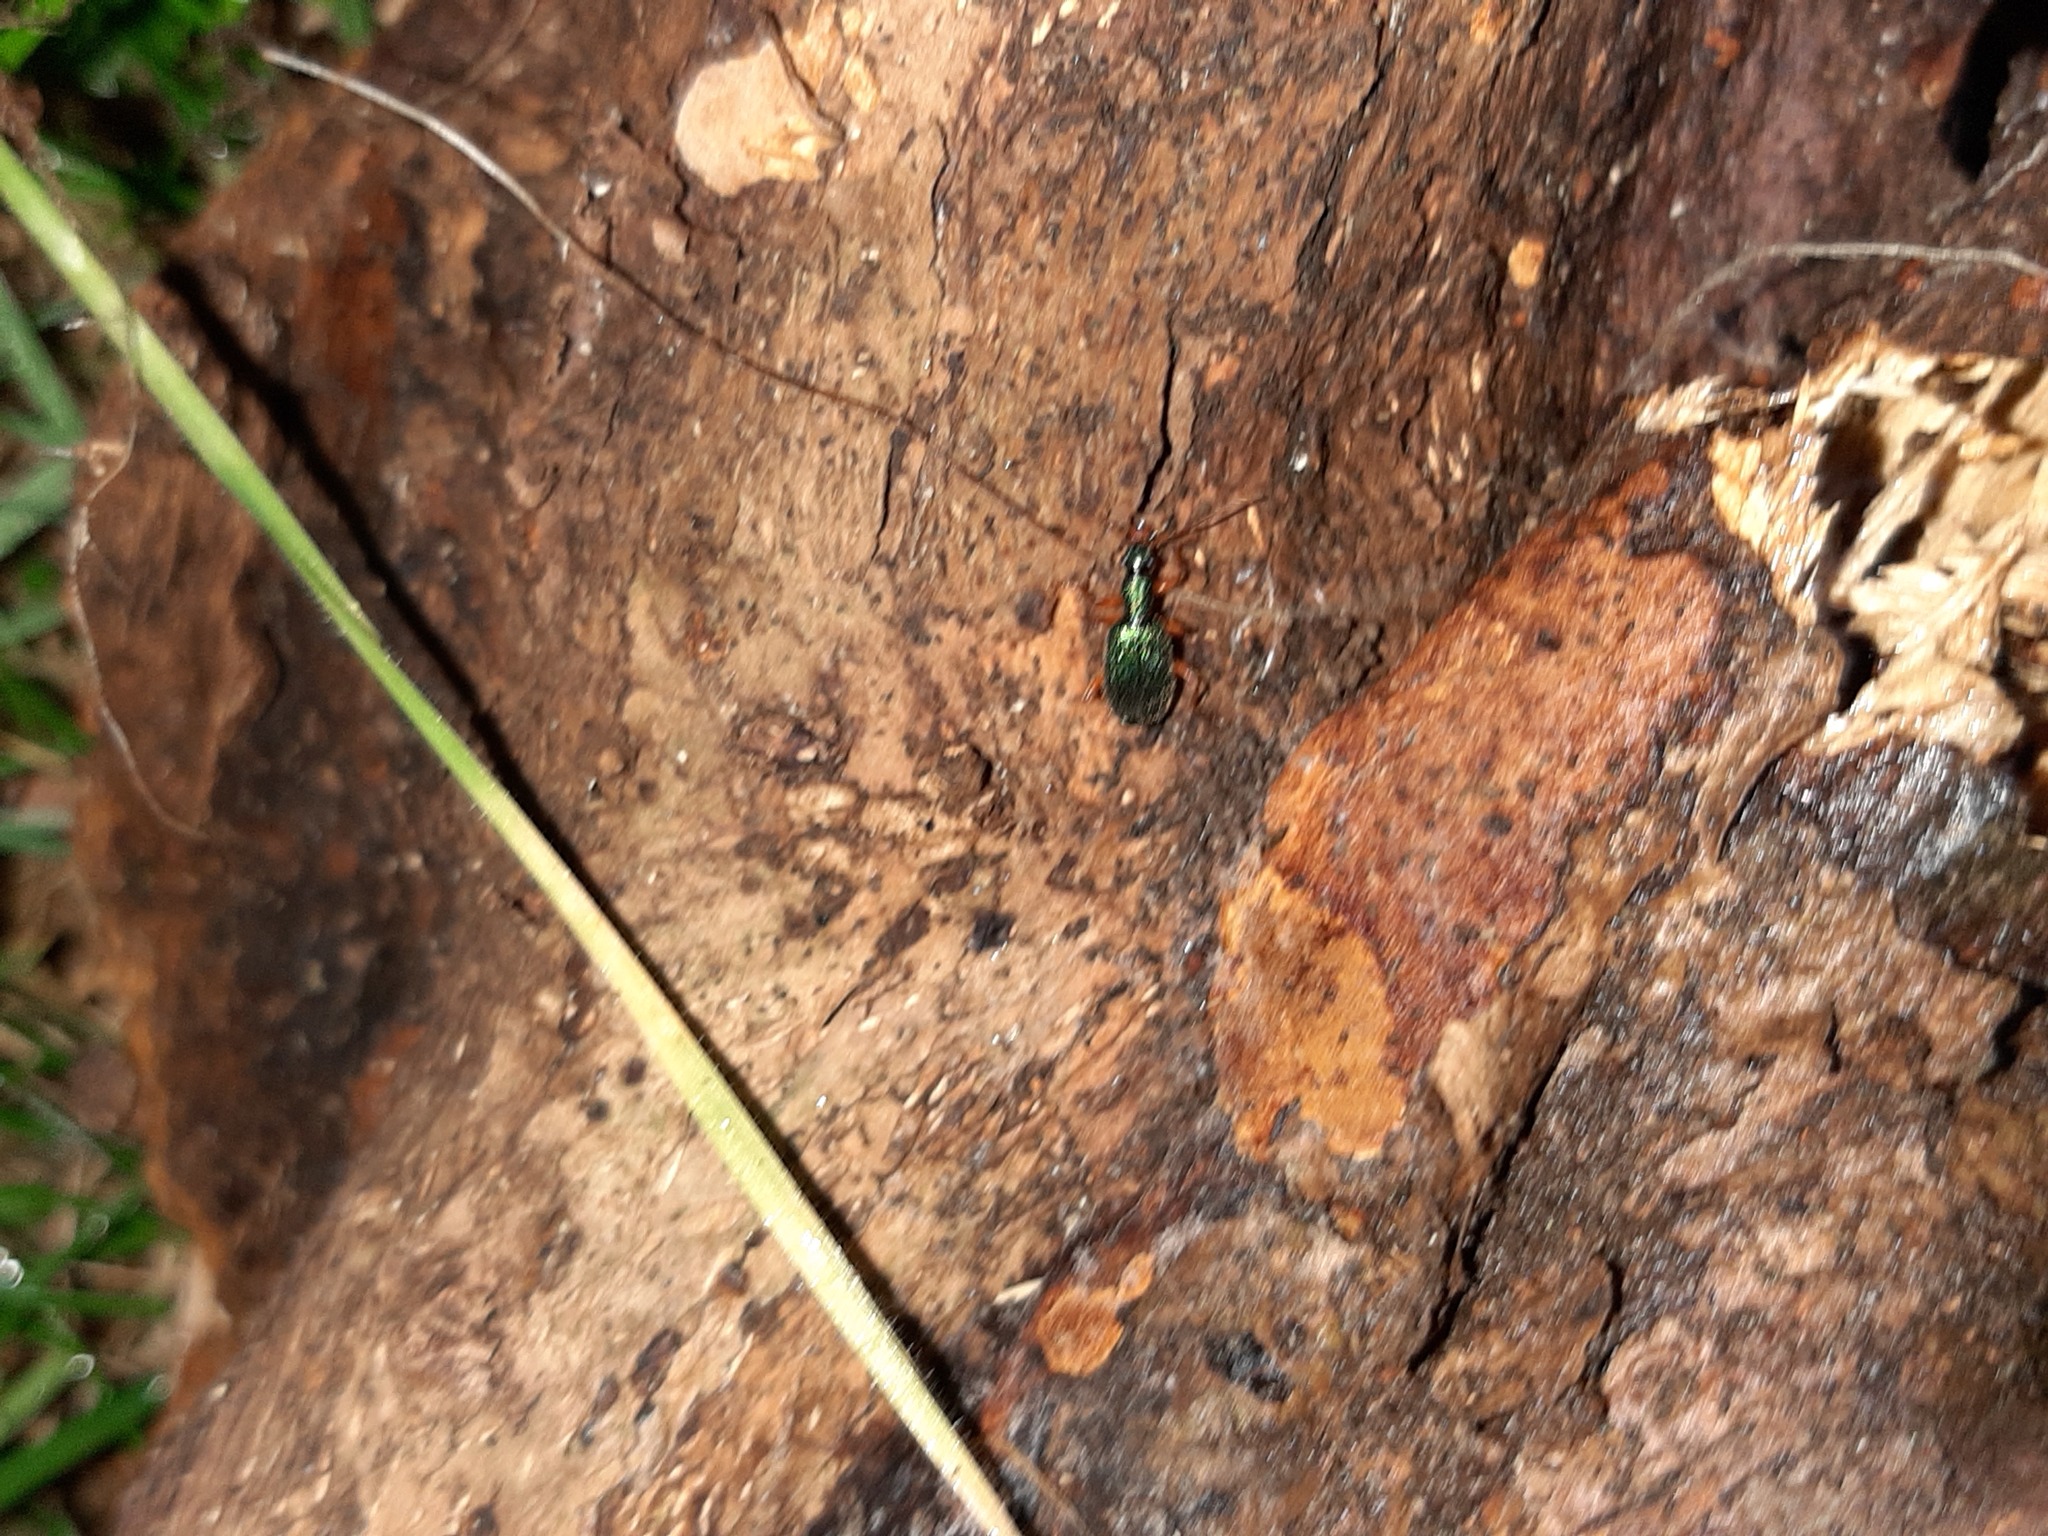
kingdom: Animalia
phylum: Arthropoda
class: Insecta
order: Coleoptera
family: Carabidae
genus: Drypta
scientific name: Drypta dentata
